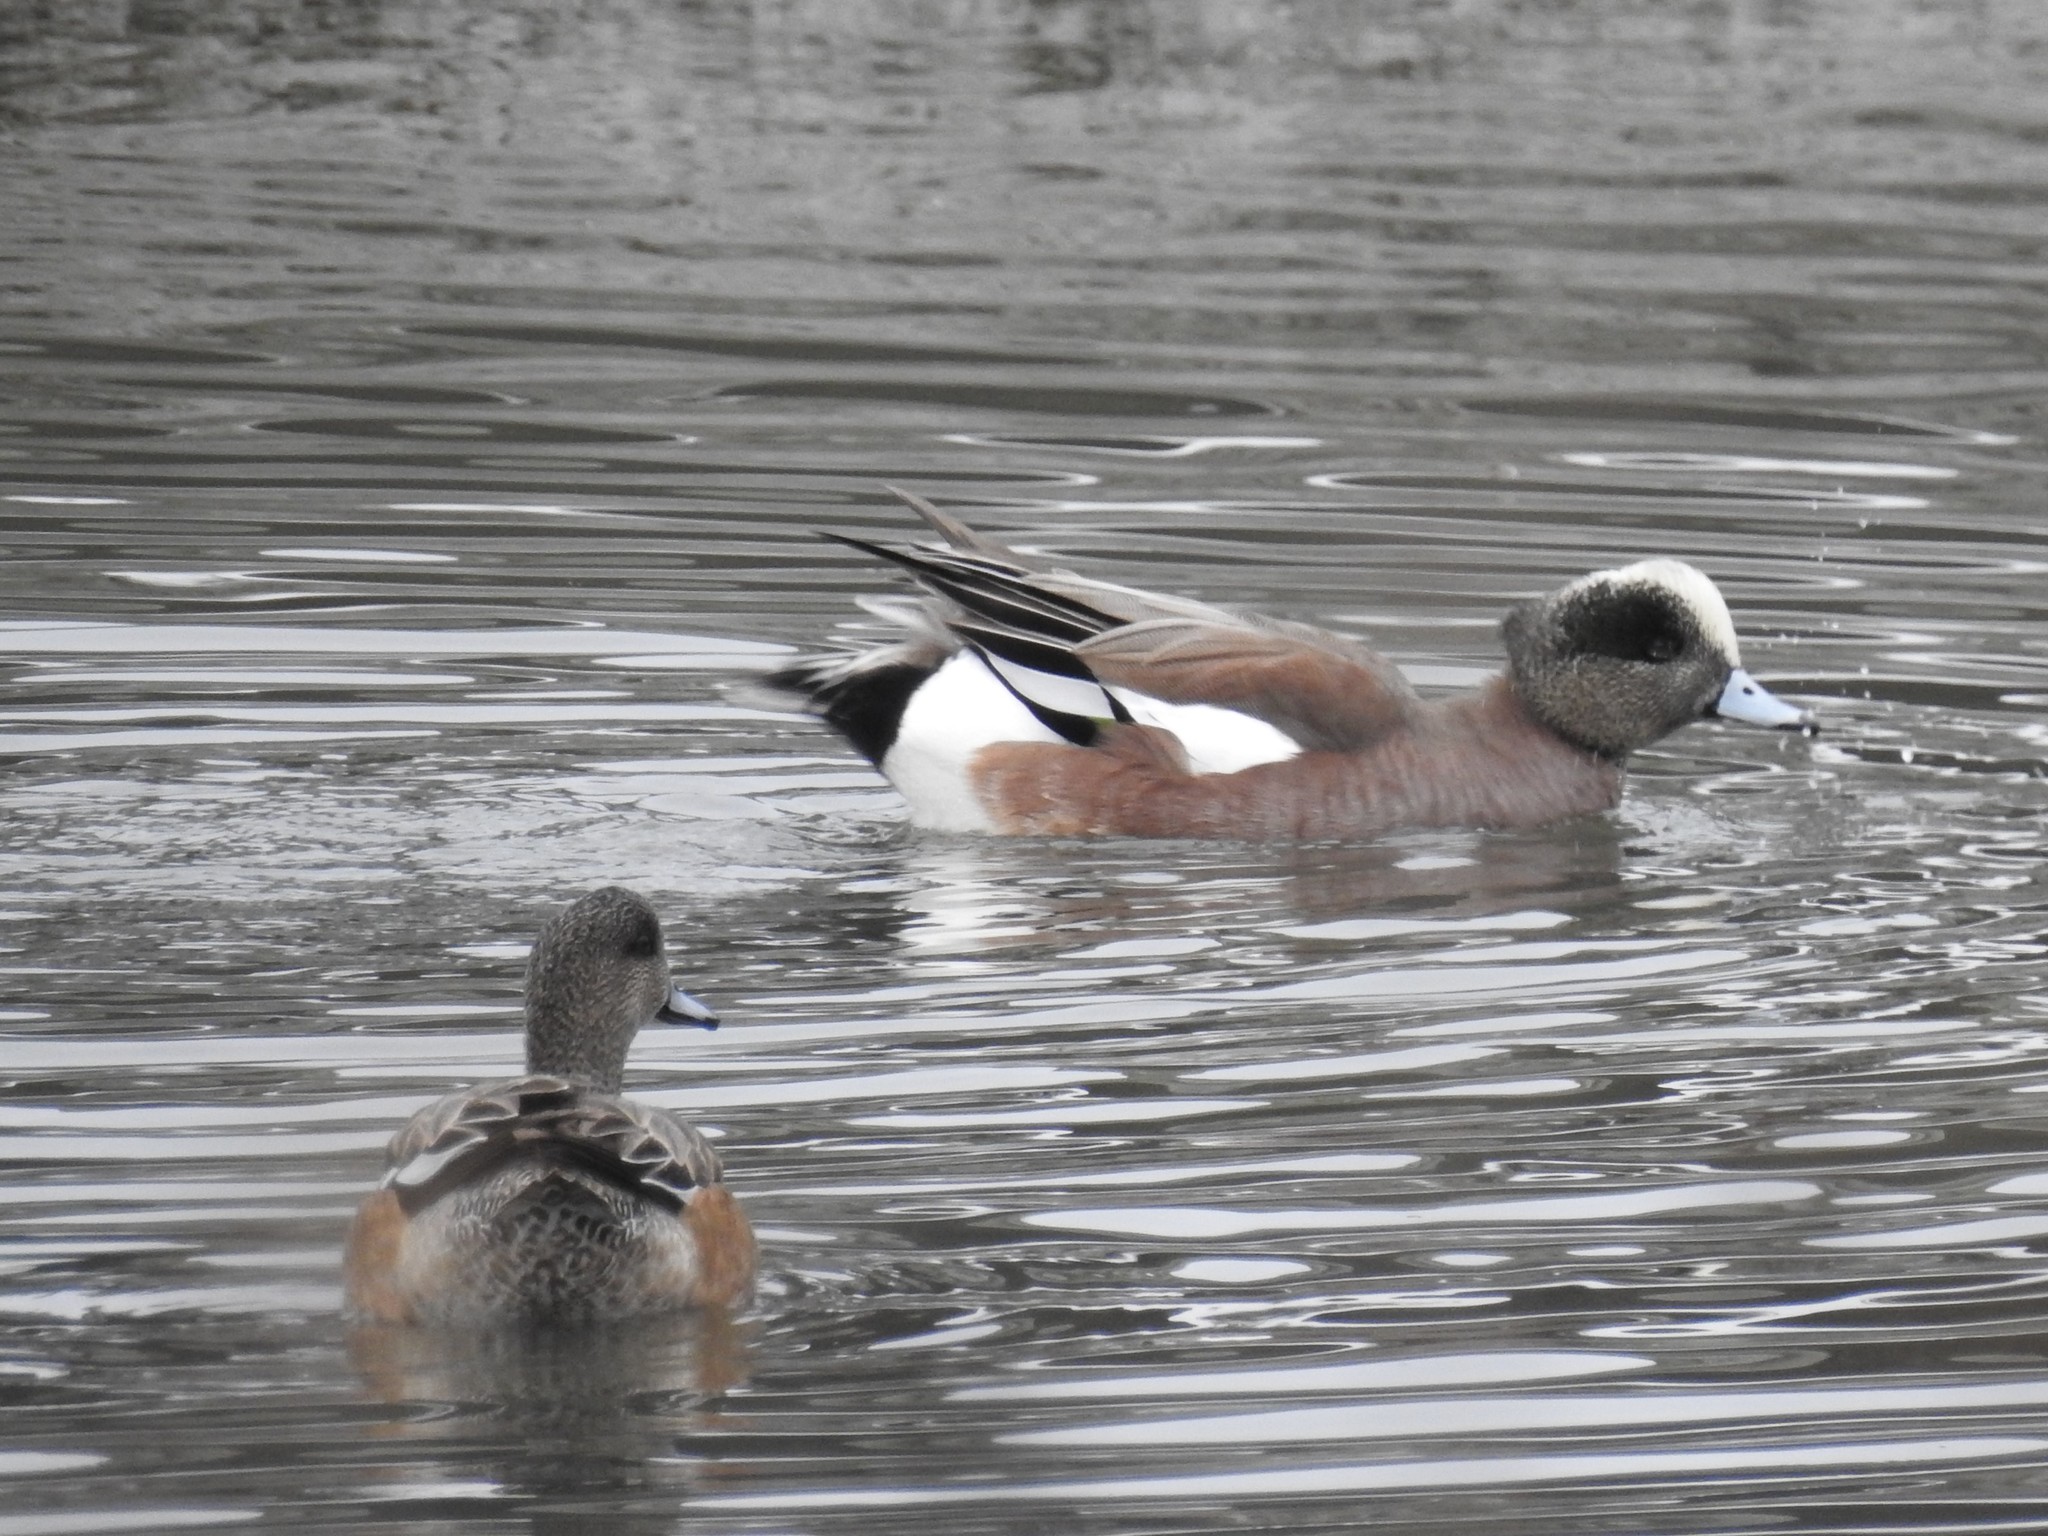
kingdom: Animalia
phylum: Chordata
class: Aves
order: Anseriformes
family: Anatidae
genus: Mareca
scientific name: Mareca americana
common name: American wigeon
